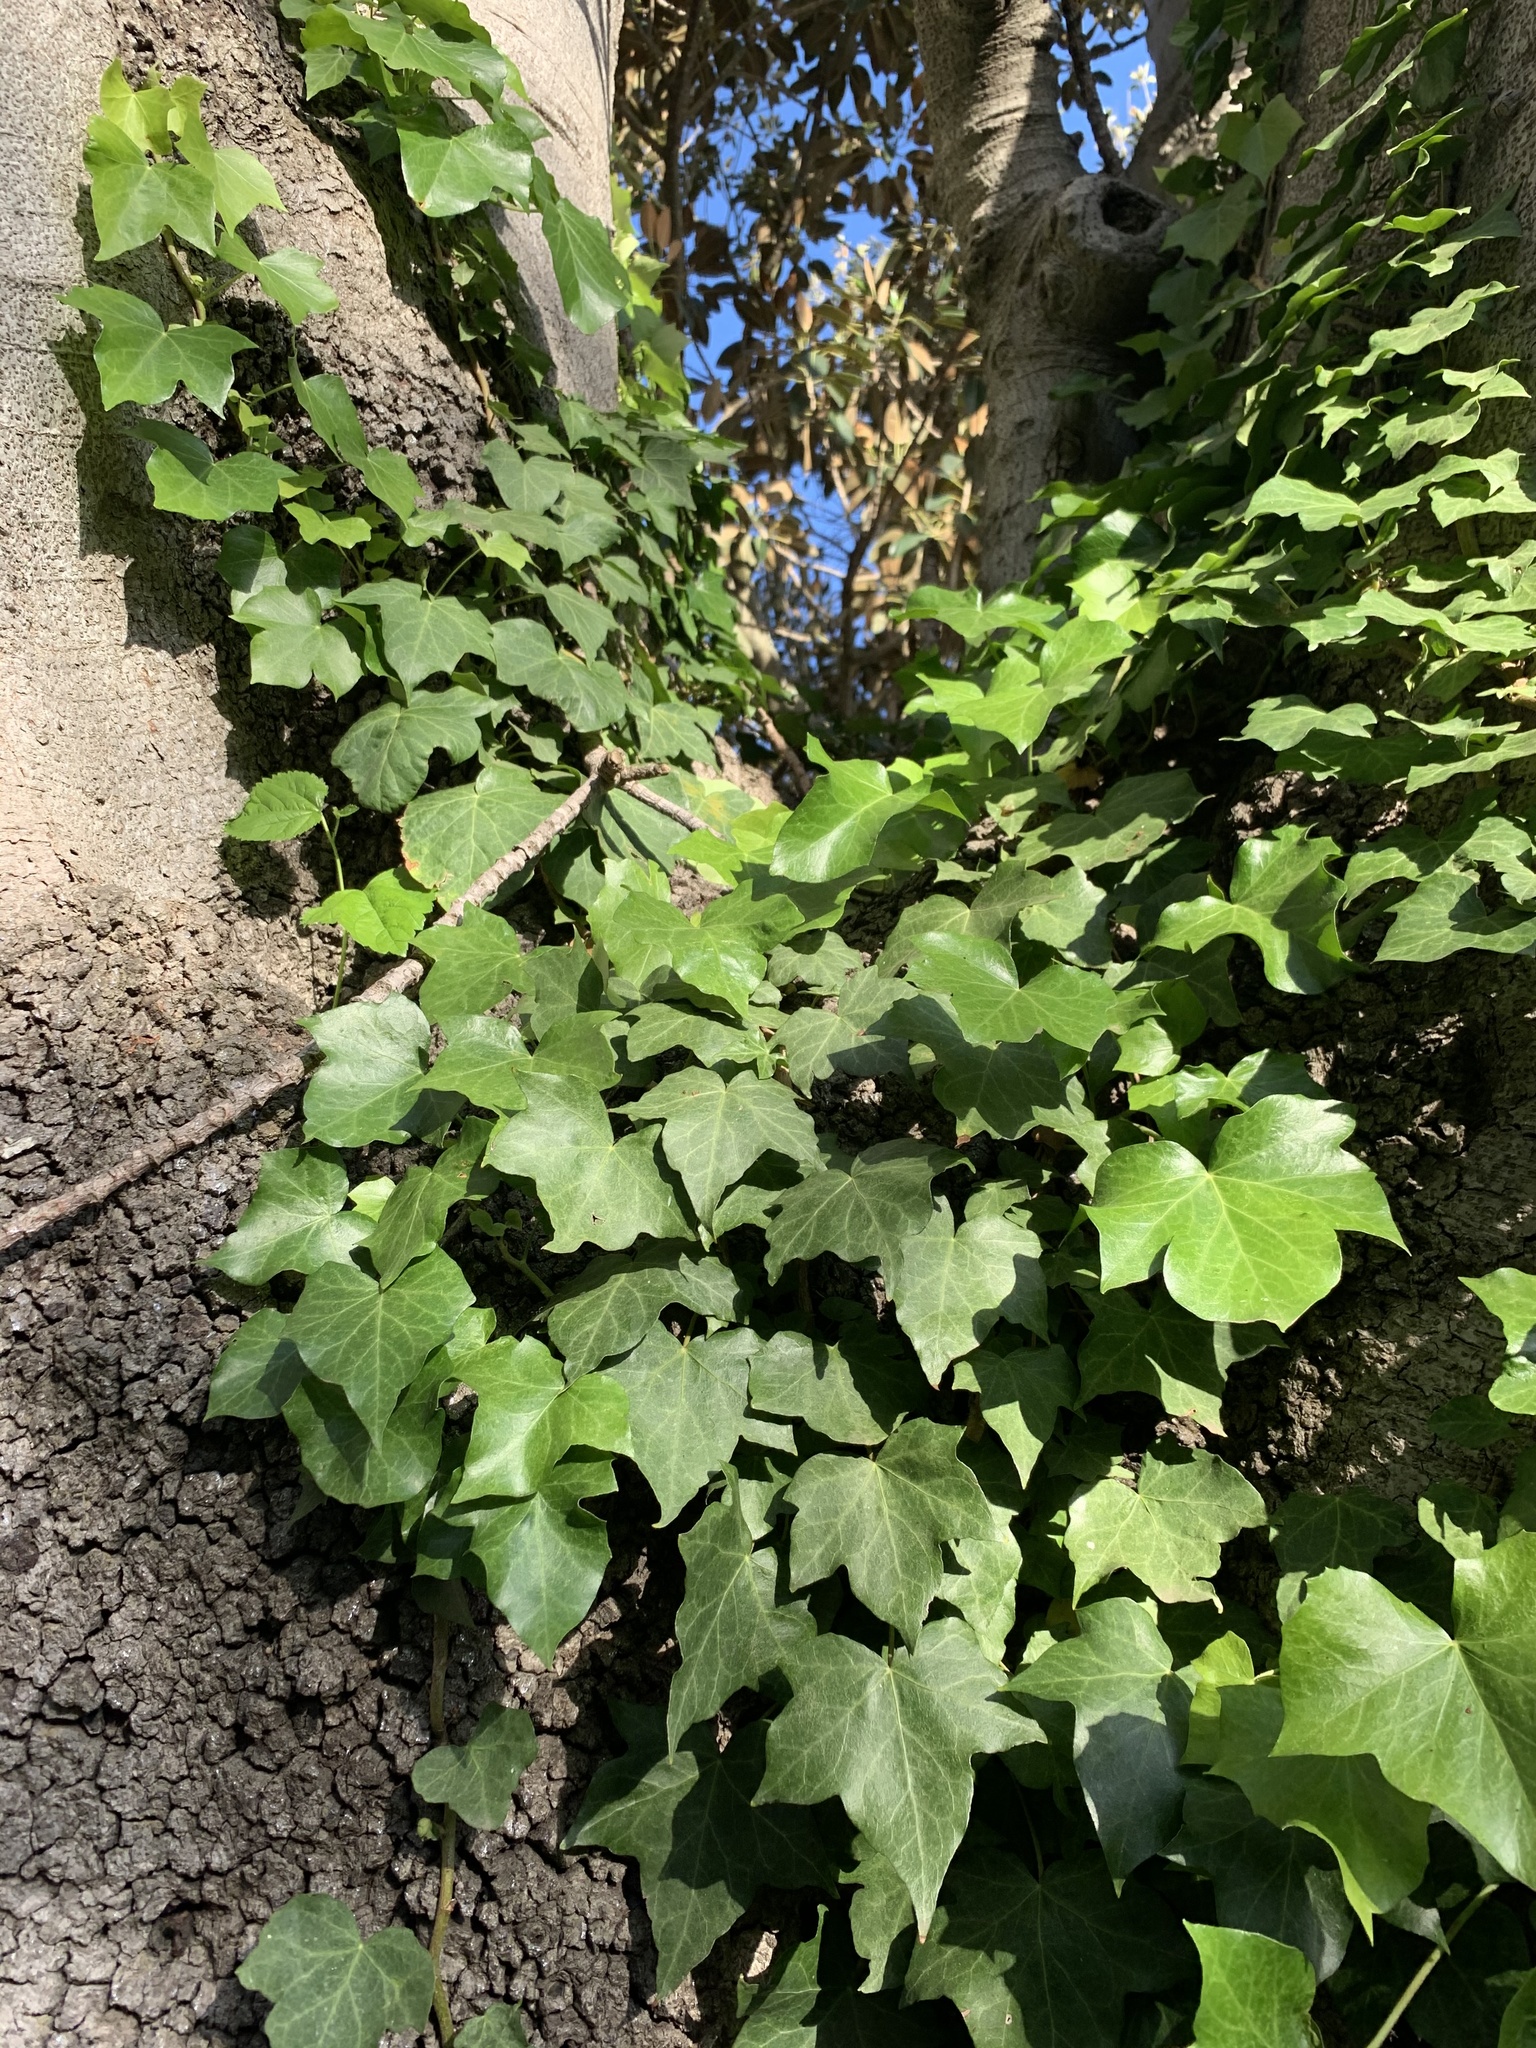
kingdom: Plantae
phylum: Tracheophyta
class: Magnoliopsida
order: Apiales
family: Araliaceae
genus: Hedera
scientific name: Hedera helix
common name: Ivy
